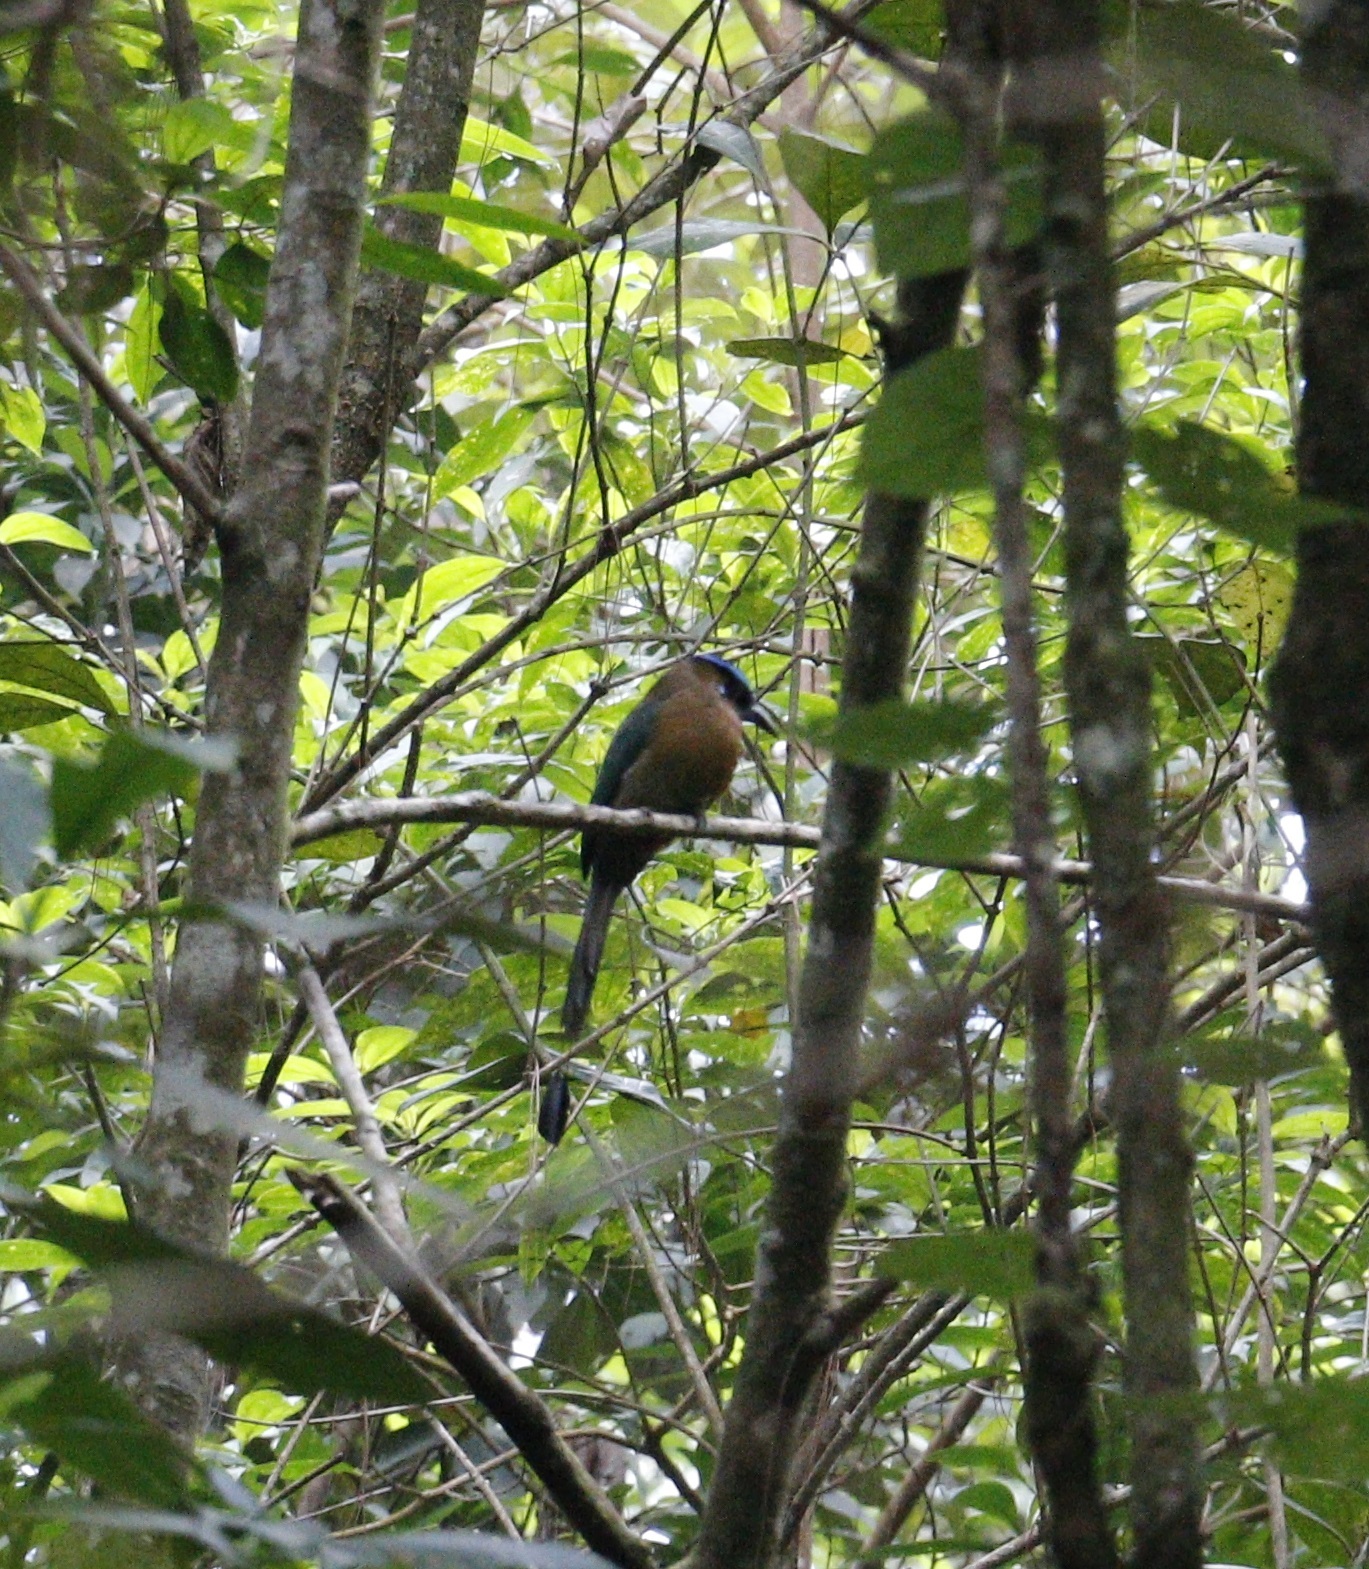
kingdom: Animalia
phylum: Chordata
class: Aves
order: Coraciiformes
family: Momotidae
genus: Momotus
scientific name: Momotus lessonii
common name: Lesson's motmot
